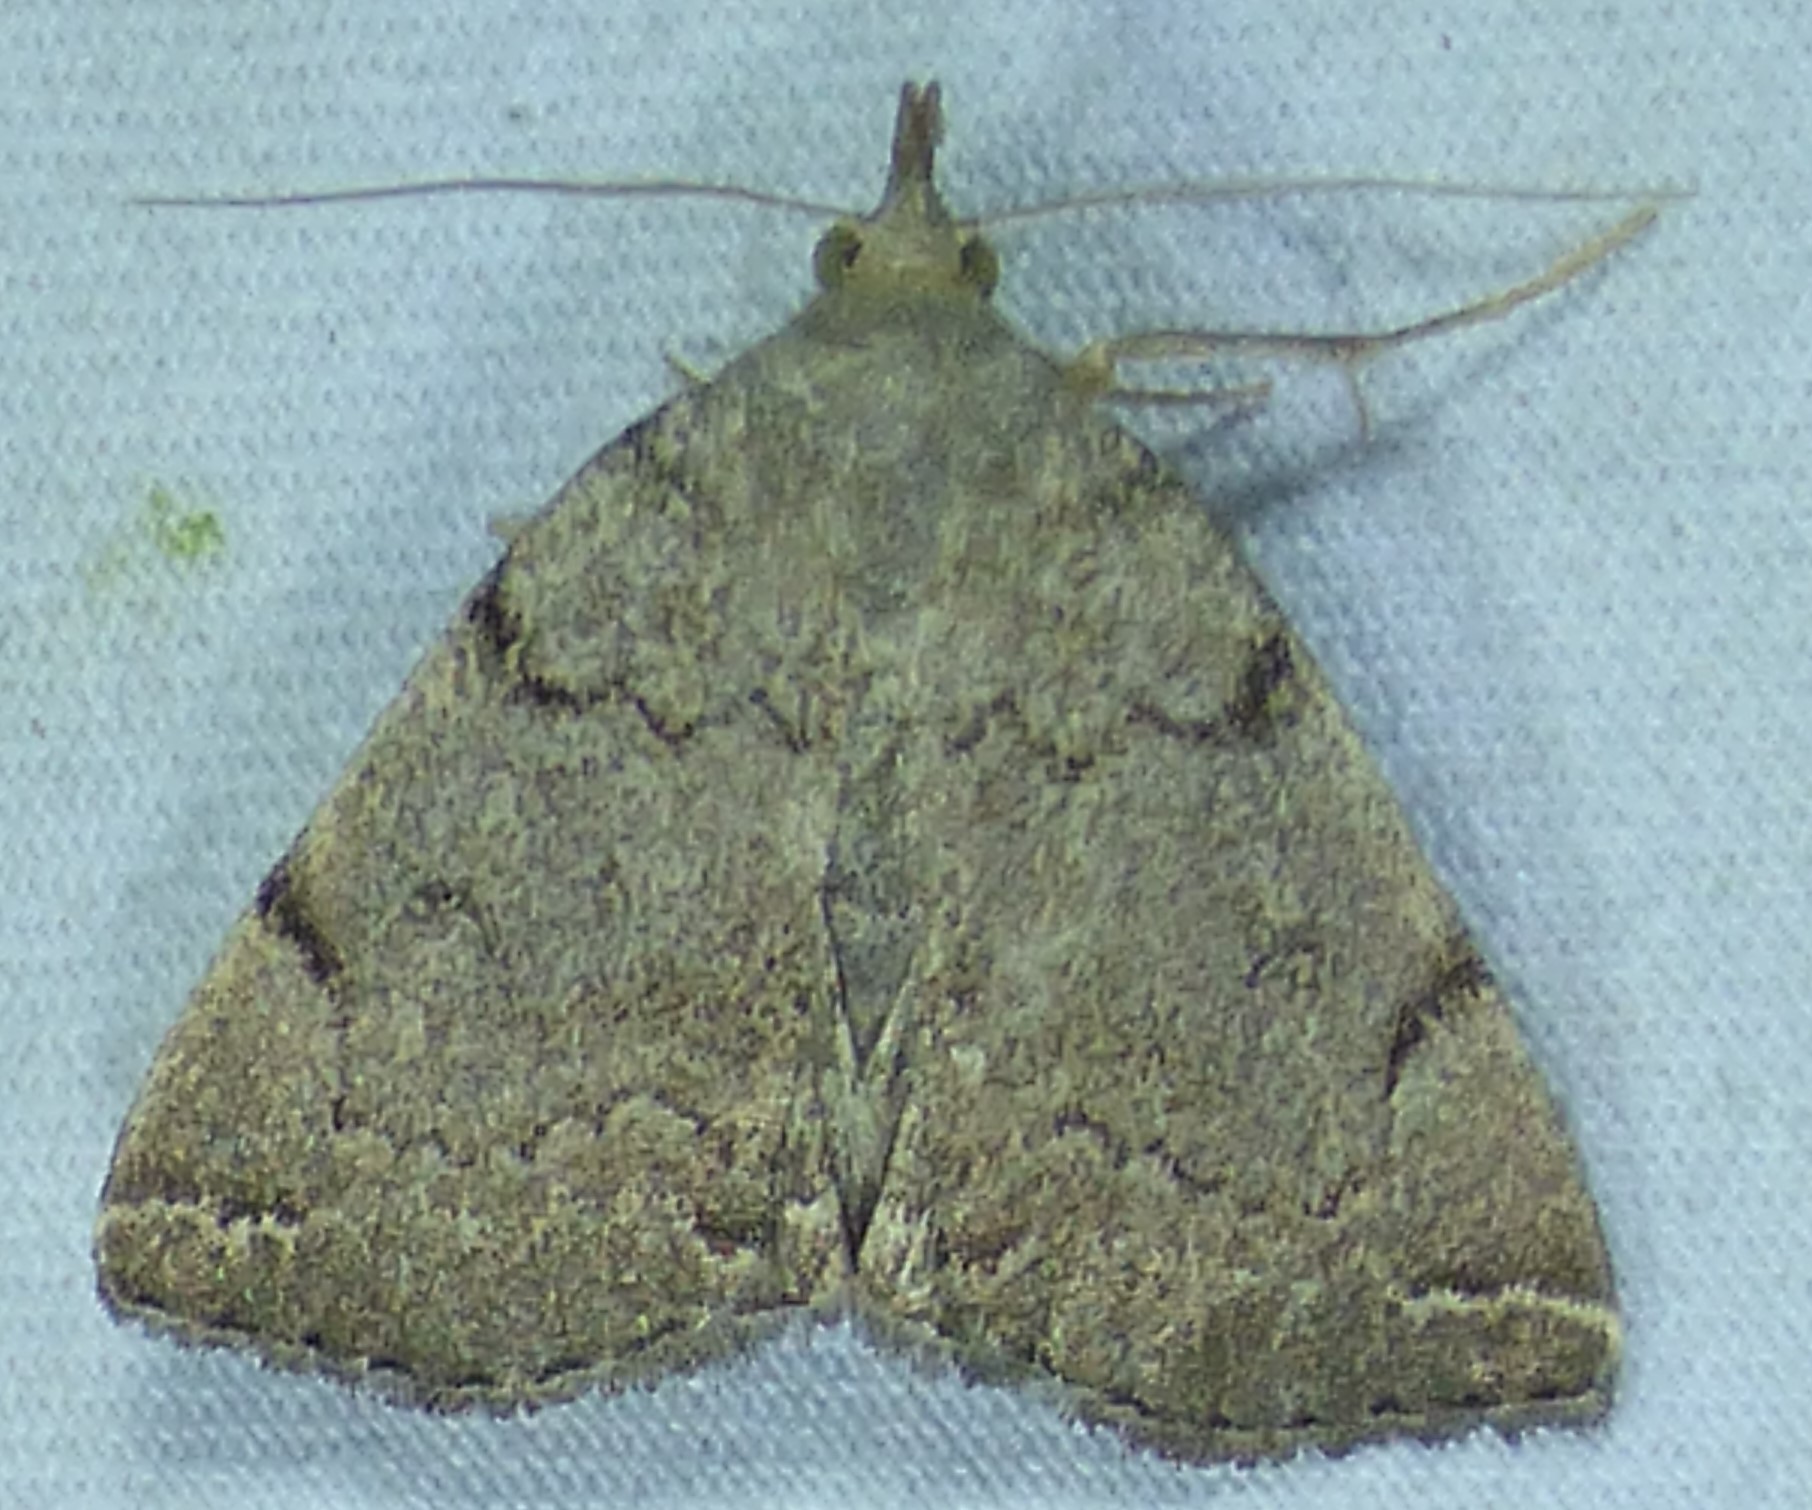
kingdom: Animalia
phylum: Arthropoda
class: Insecta
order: Lepidoptera
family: Erebidae
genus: Zanclognatha
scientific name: Zanclognatha theralis
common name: Flagged fan-foot
